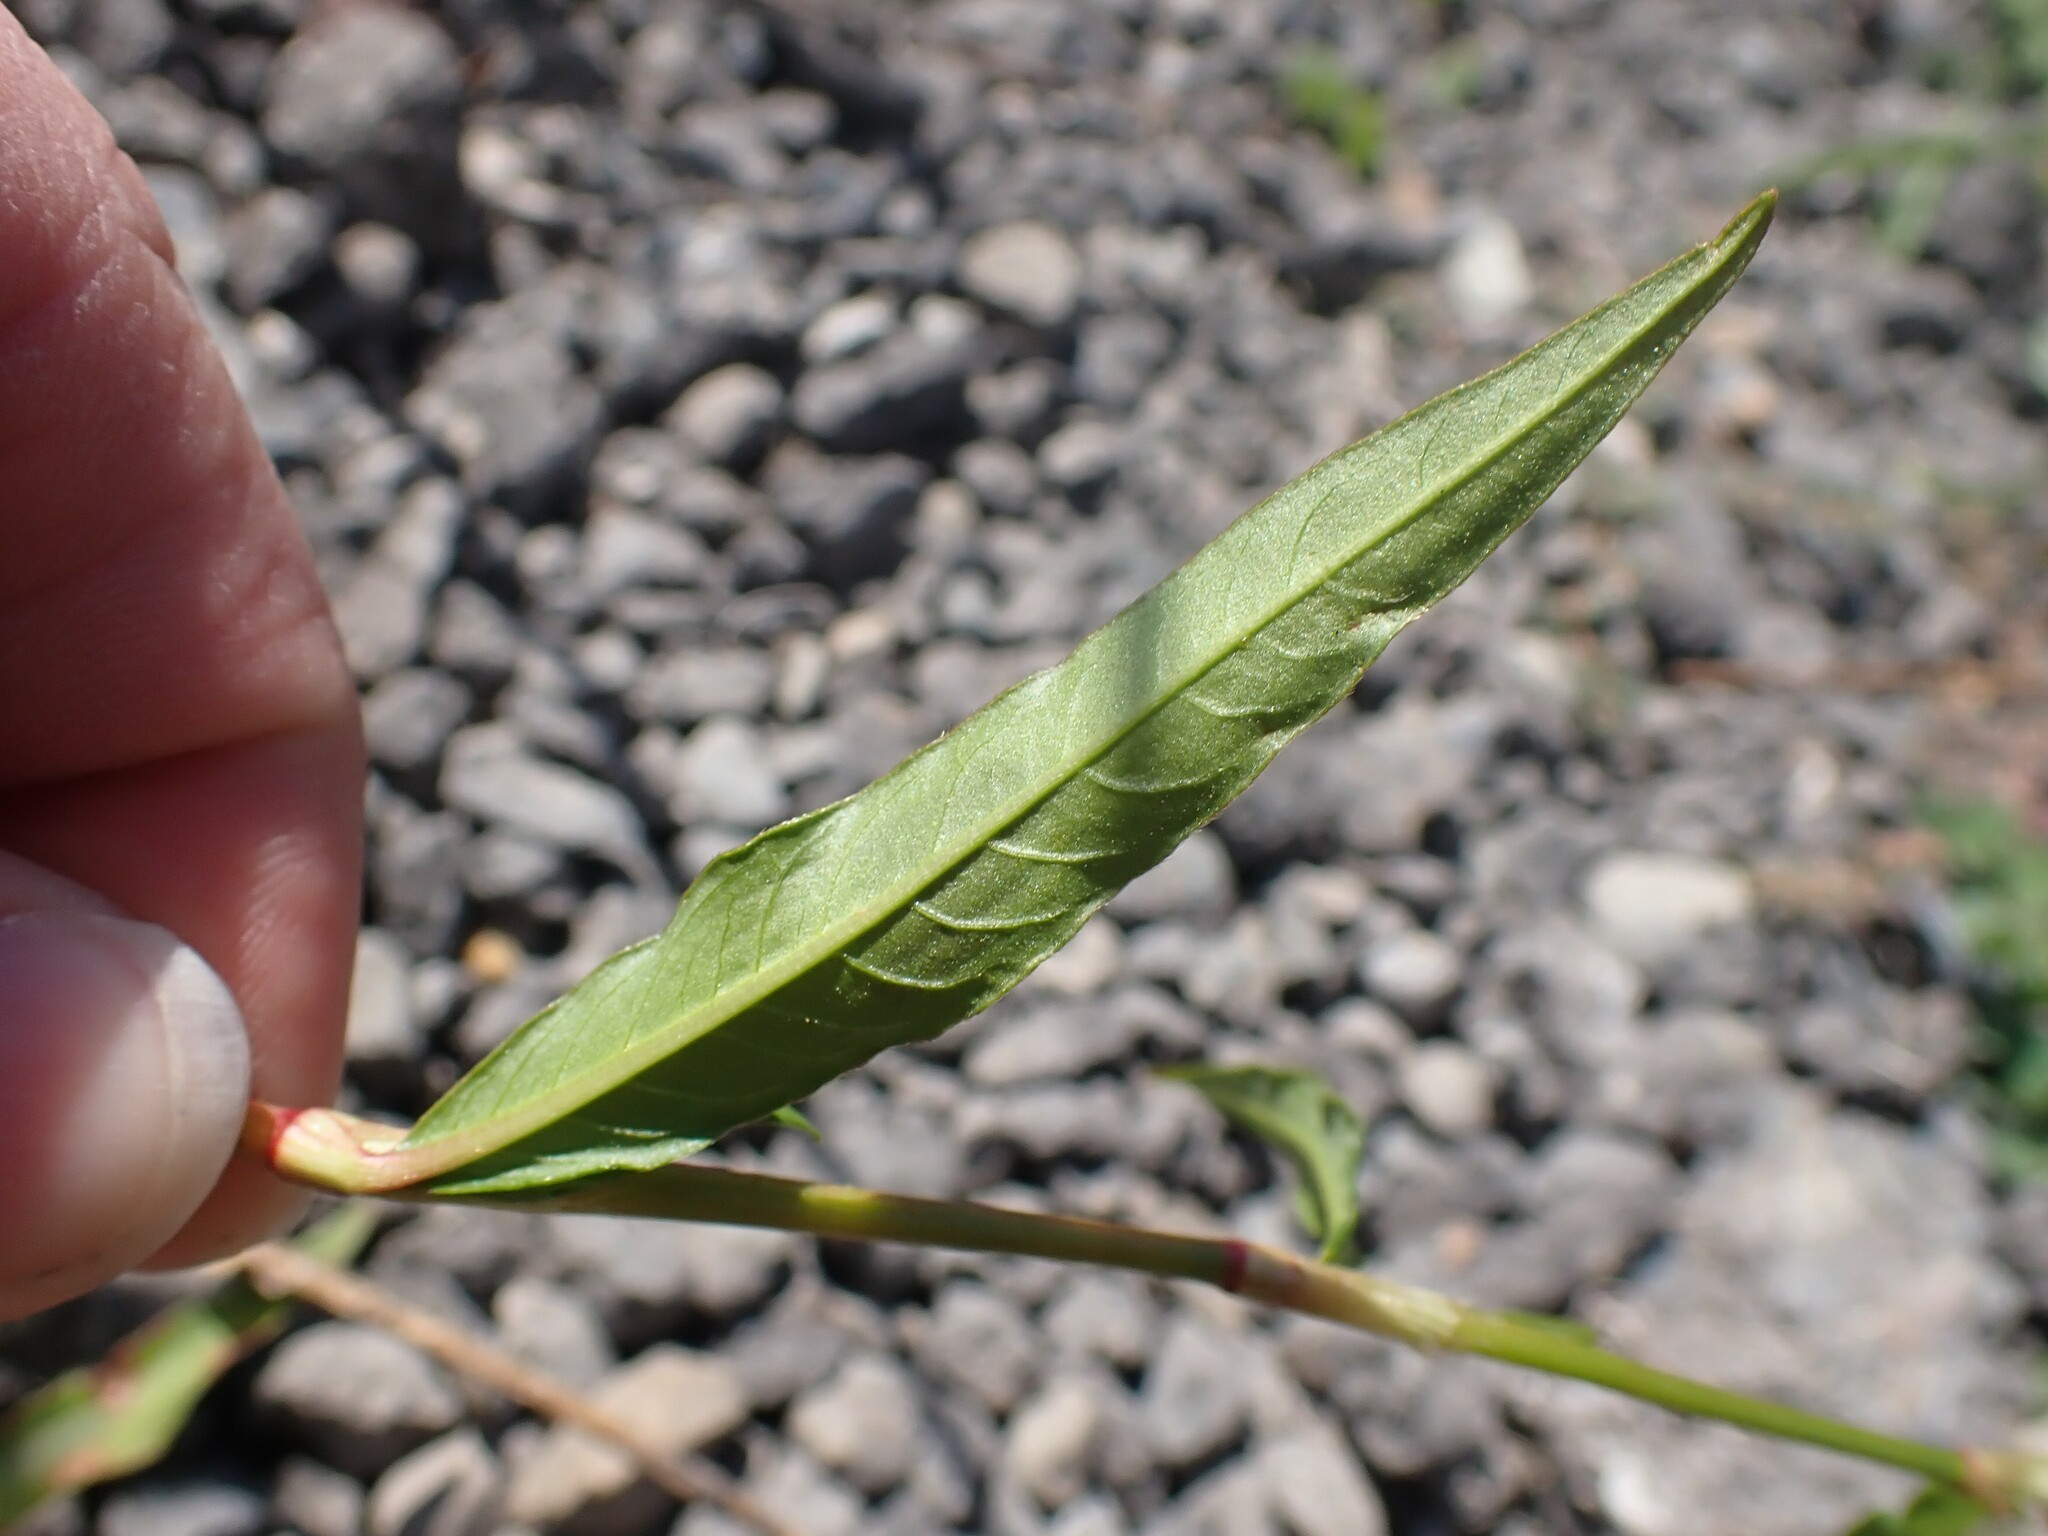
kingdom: Plantae
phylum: Tracheophyta
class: Magnoliopsida
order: Caryophyllales
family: Polygonaceae
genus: Persicaria
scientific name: Persicaria maculosa
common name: Redshank
